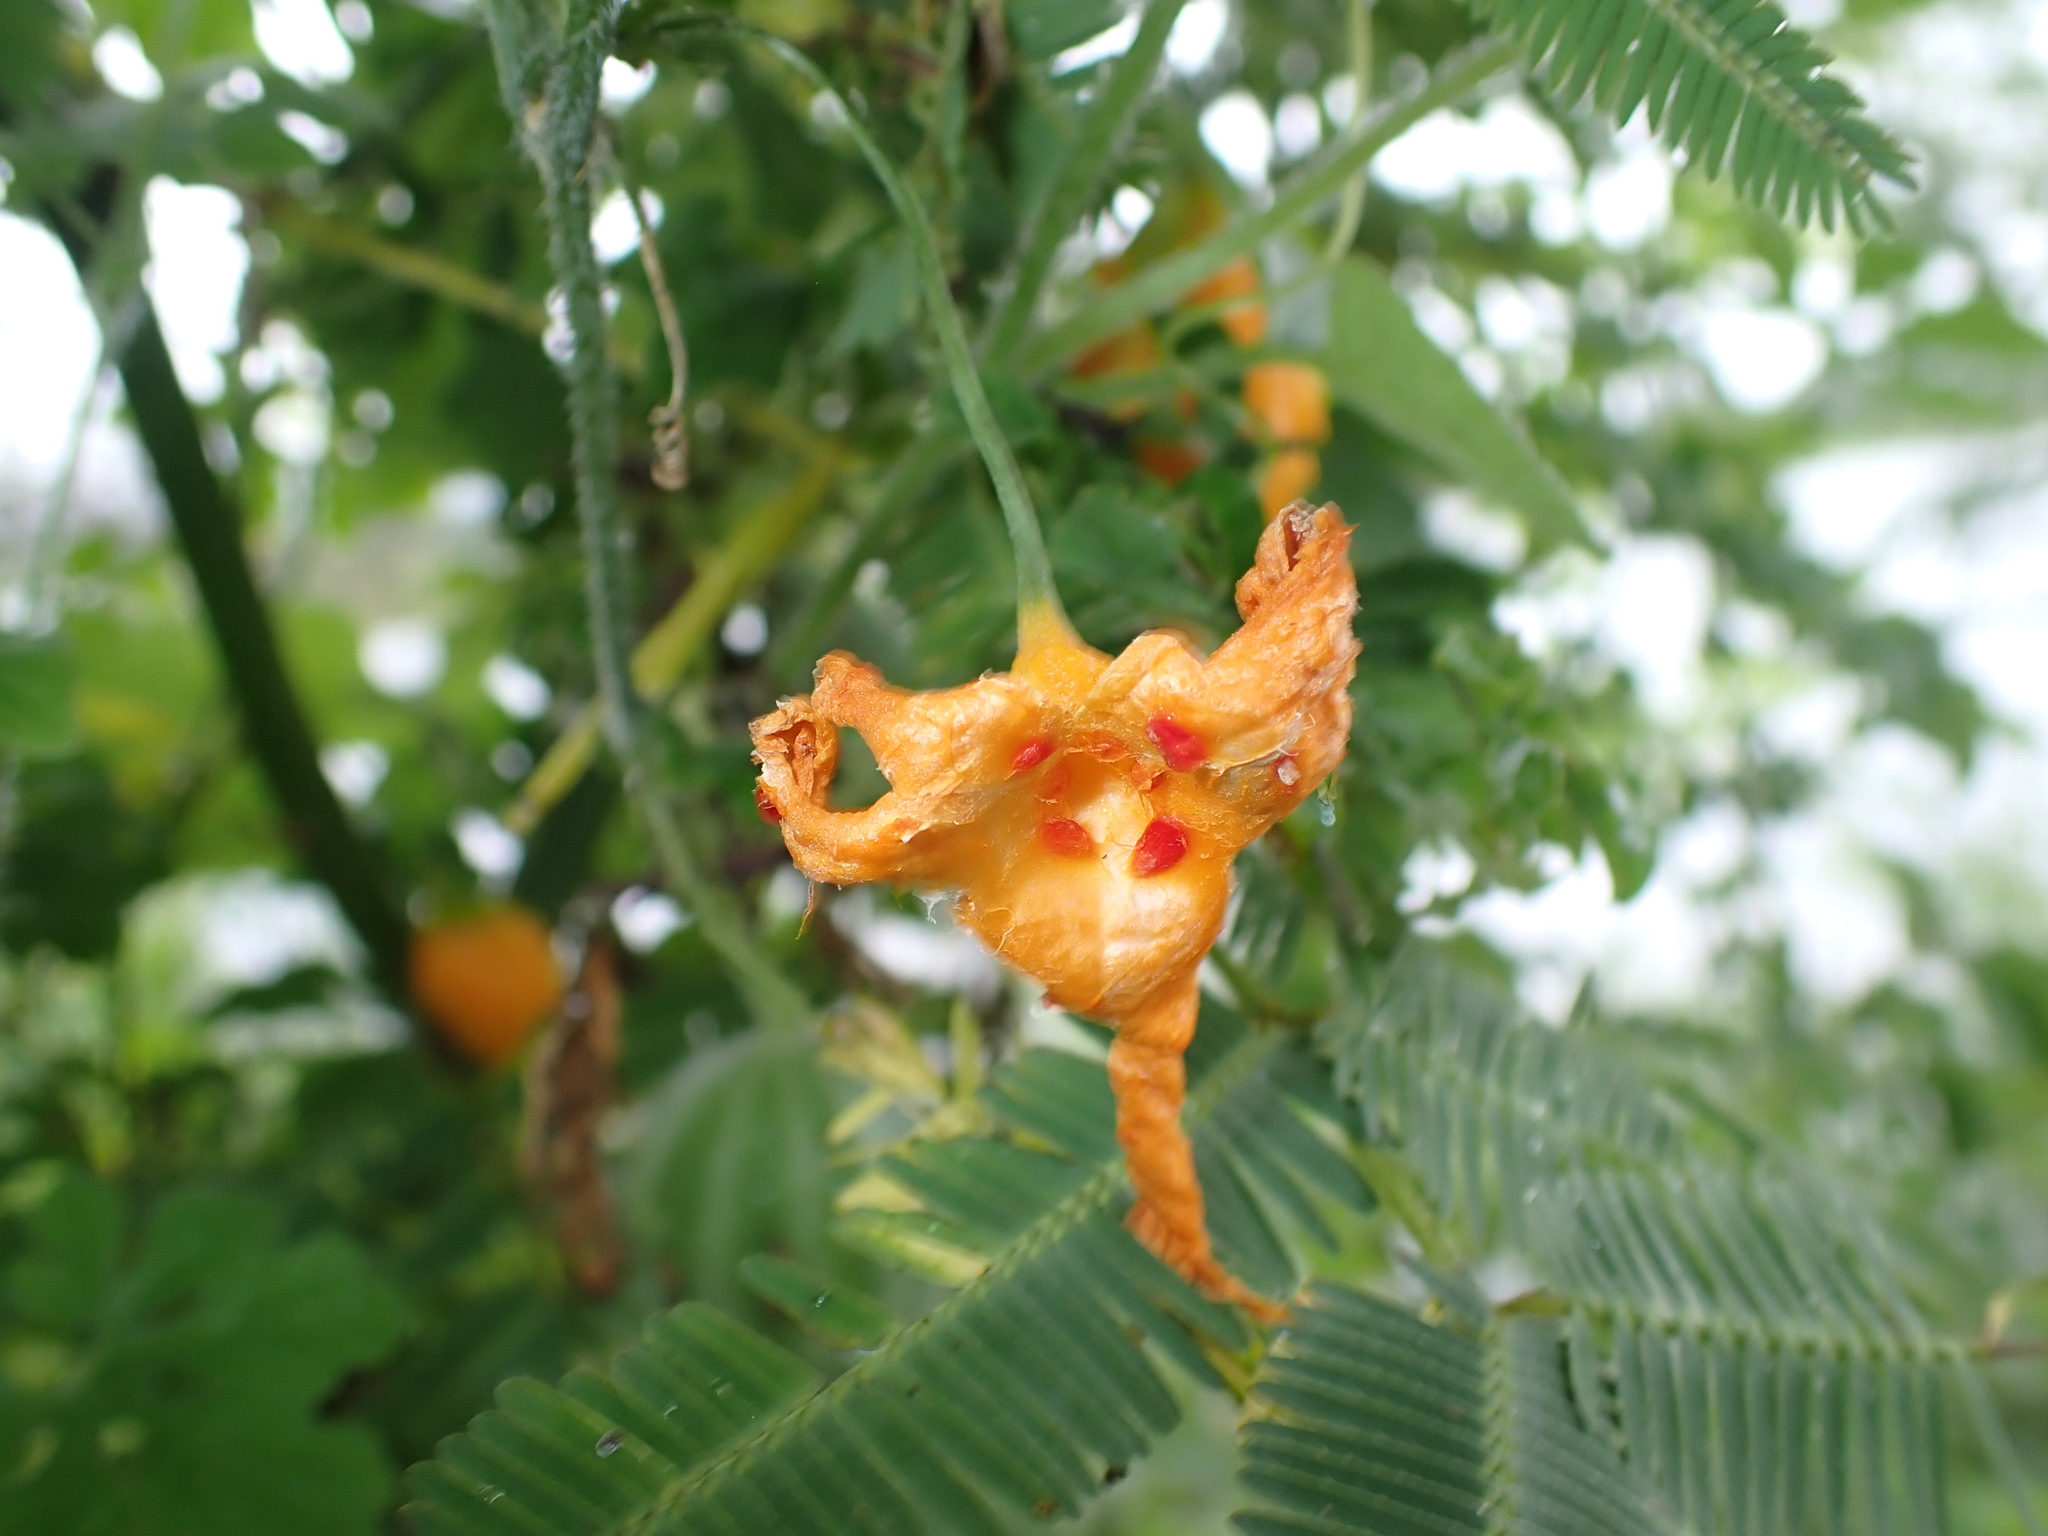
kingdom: Plantae
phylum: Tracheophyta
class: Magnoliopsida
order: Cucurbitales
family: Cucurbitaceae
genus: Momordica
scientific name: Momordica charantia
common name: Balsampear
